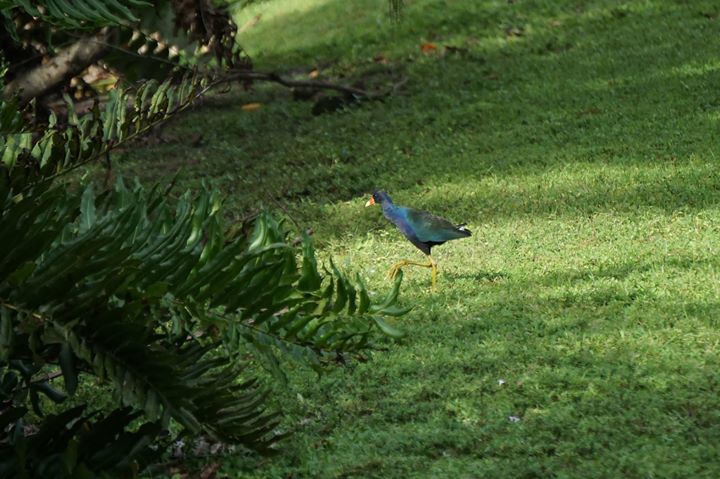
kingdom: Animalia
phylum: Chordata
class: Aves
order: Gruiformes
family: Rallidae
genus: Porphyrio
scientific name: Porphyrio martinica
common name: Purple gallinule
